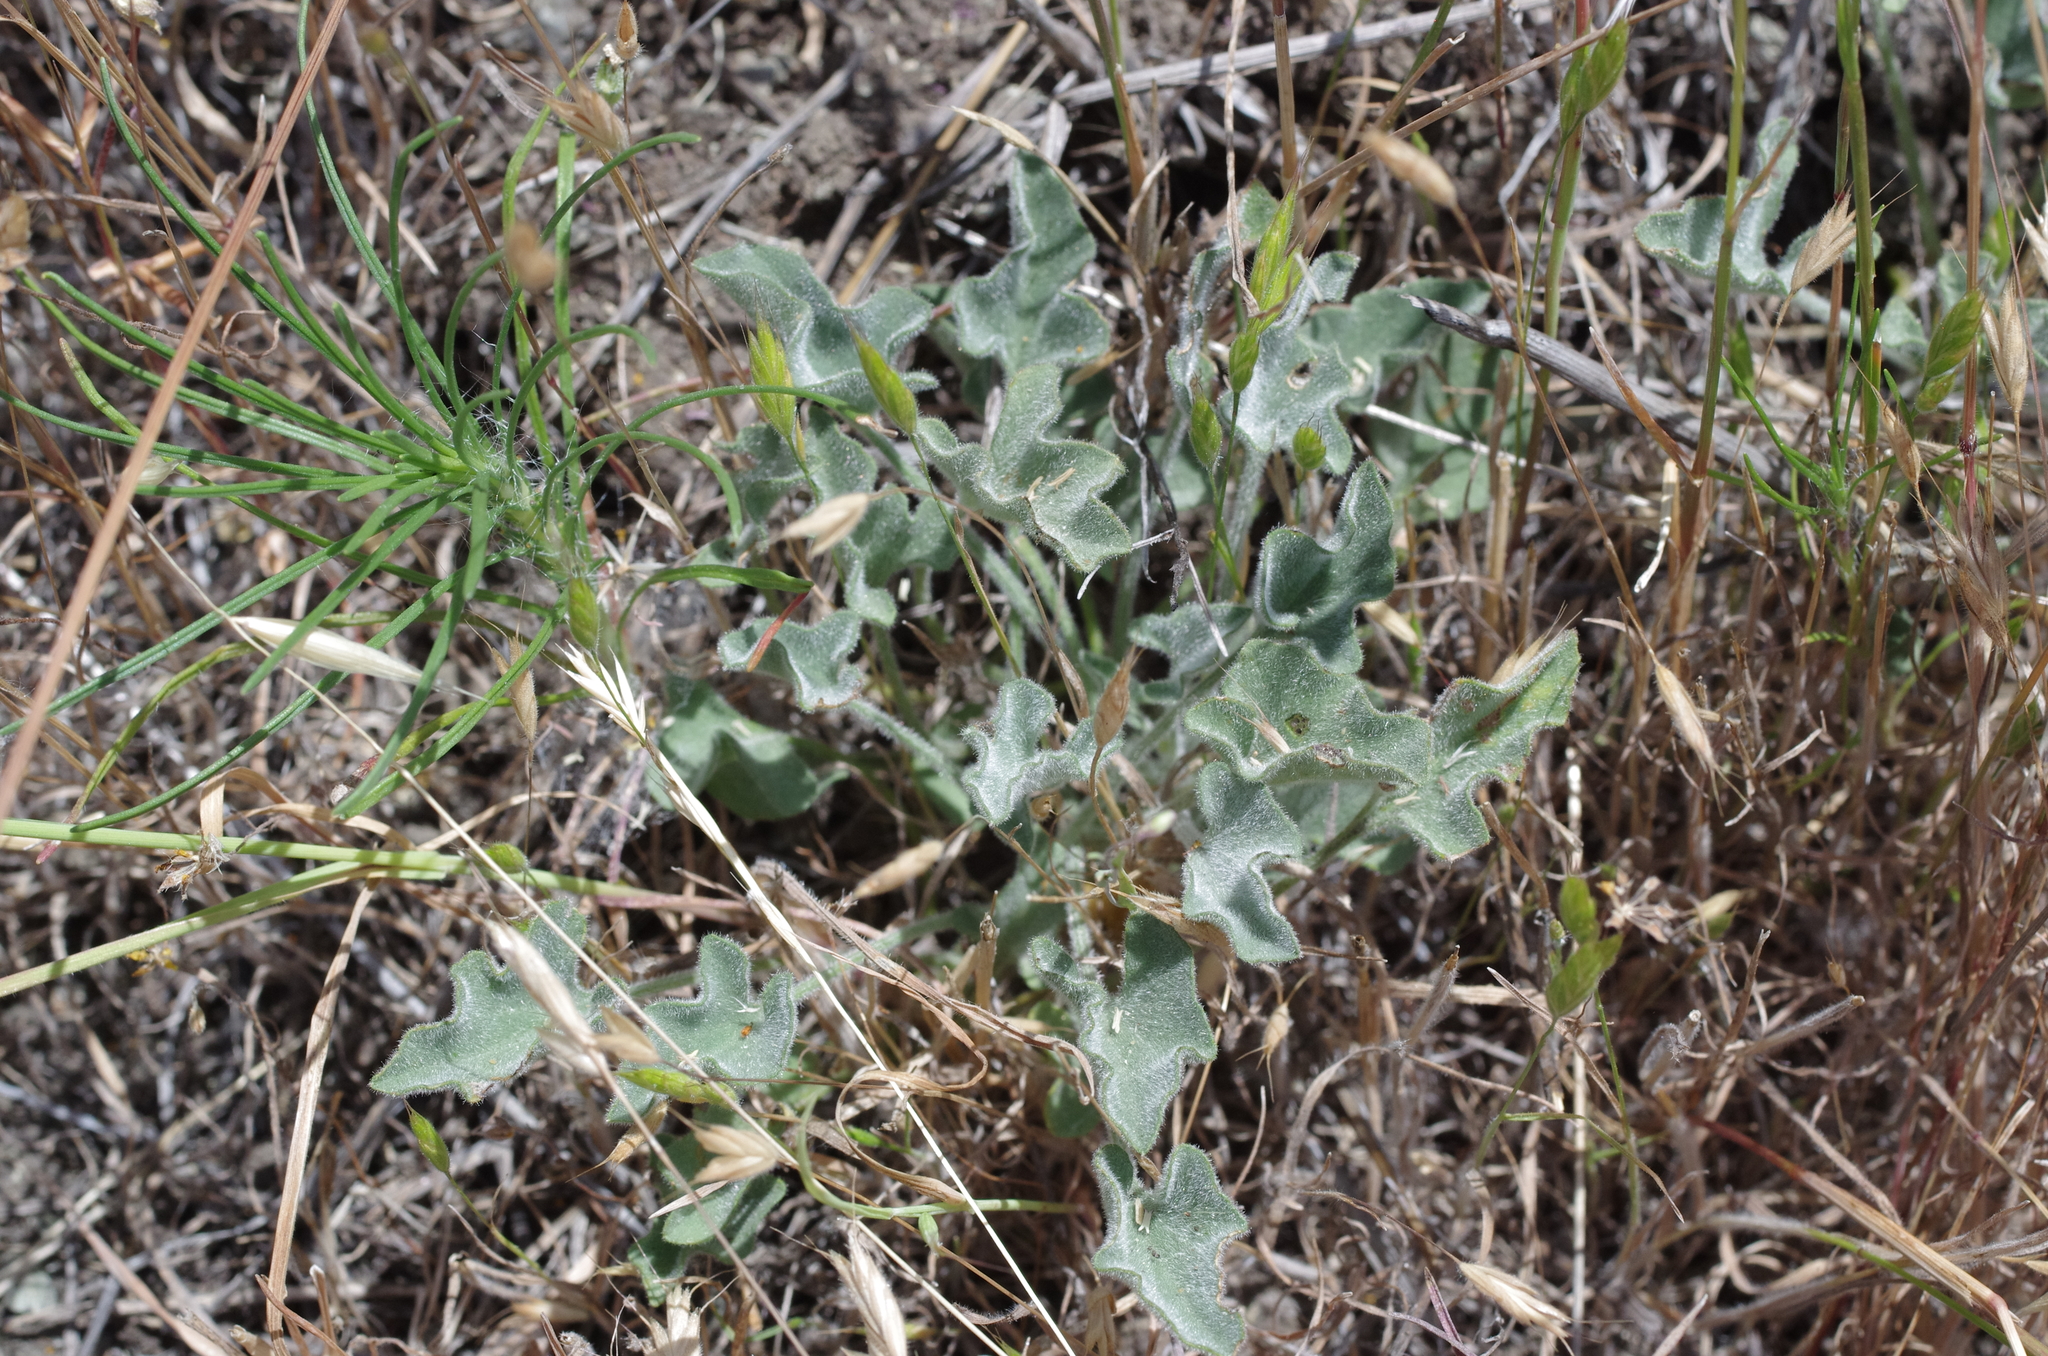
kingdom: Plantae
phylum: Tracheophyta
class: Magnoliopsida
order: Solanales
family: Convolvulaceae
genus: Calystegia
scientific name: Calystegia collina
